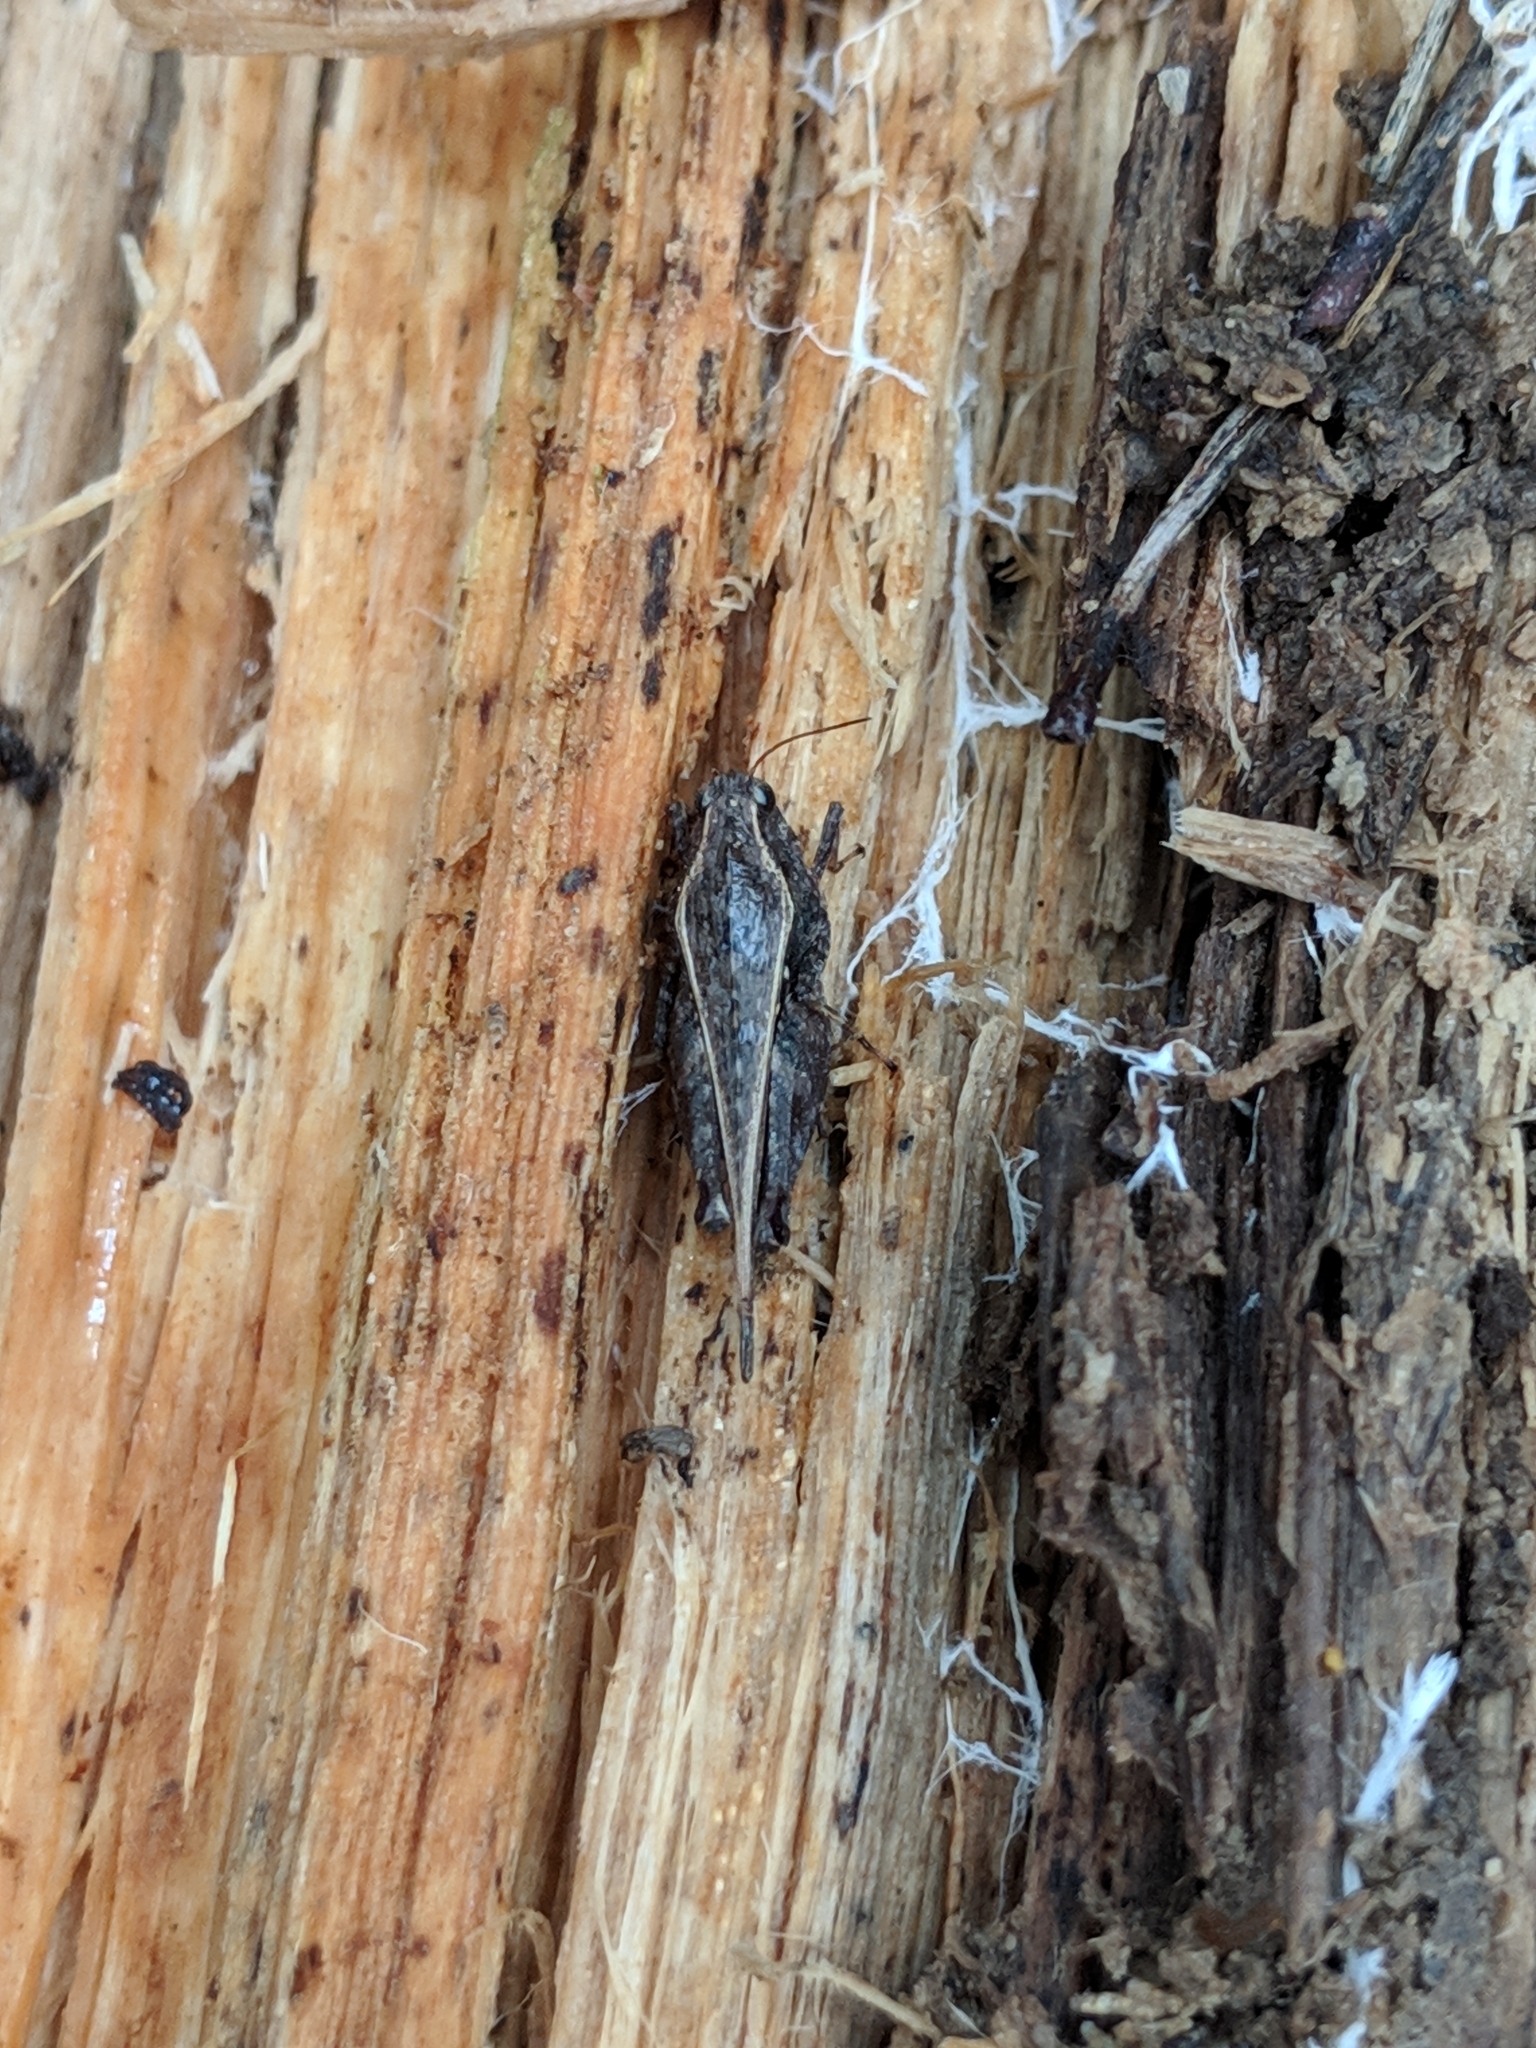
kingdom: Animalia
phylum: Arthropoda
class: Insecta
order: Orthoptera
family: Tetrigidae
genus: Tettigidea
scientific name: Tettigidea laterale
